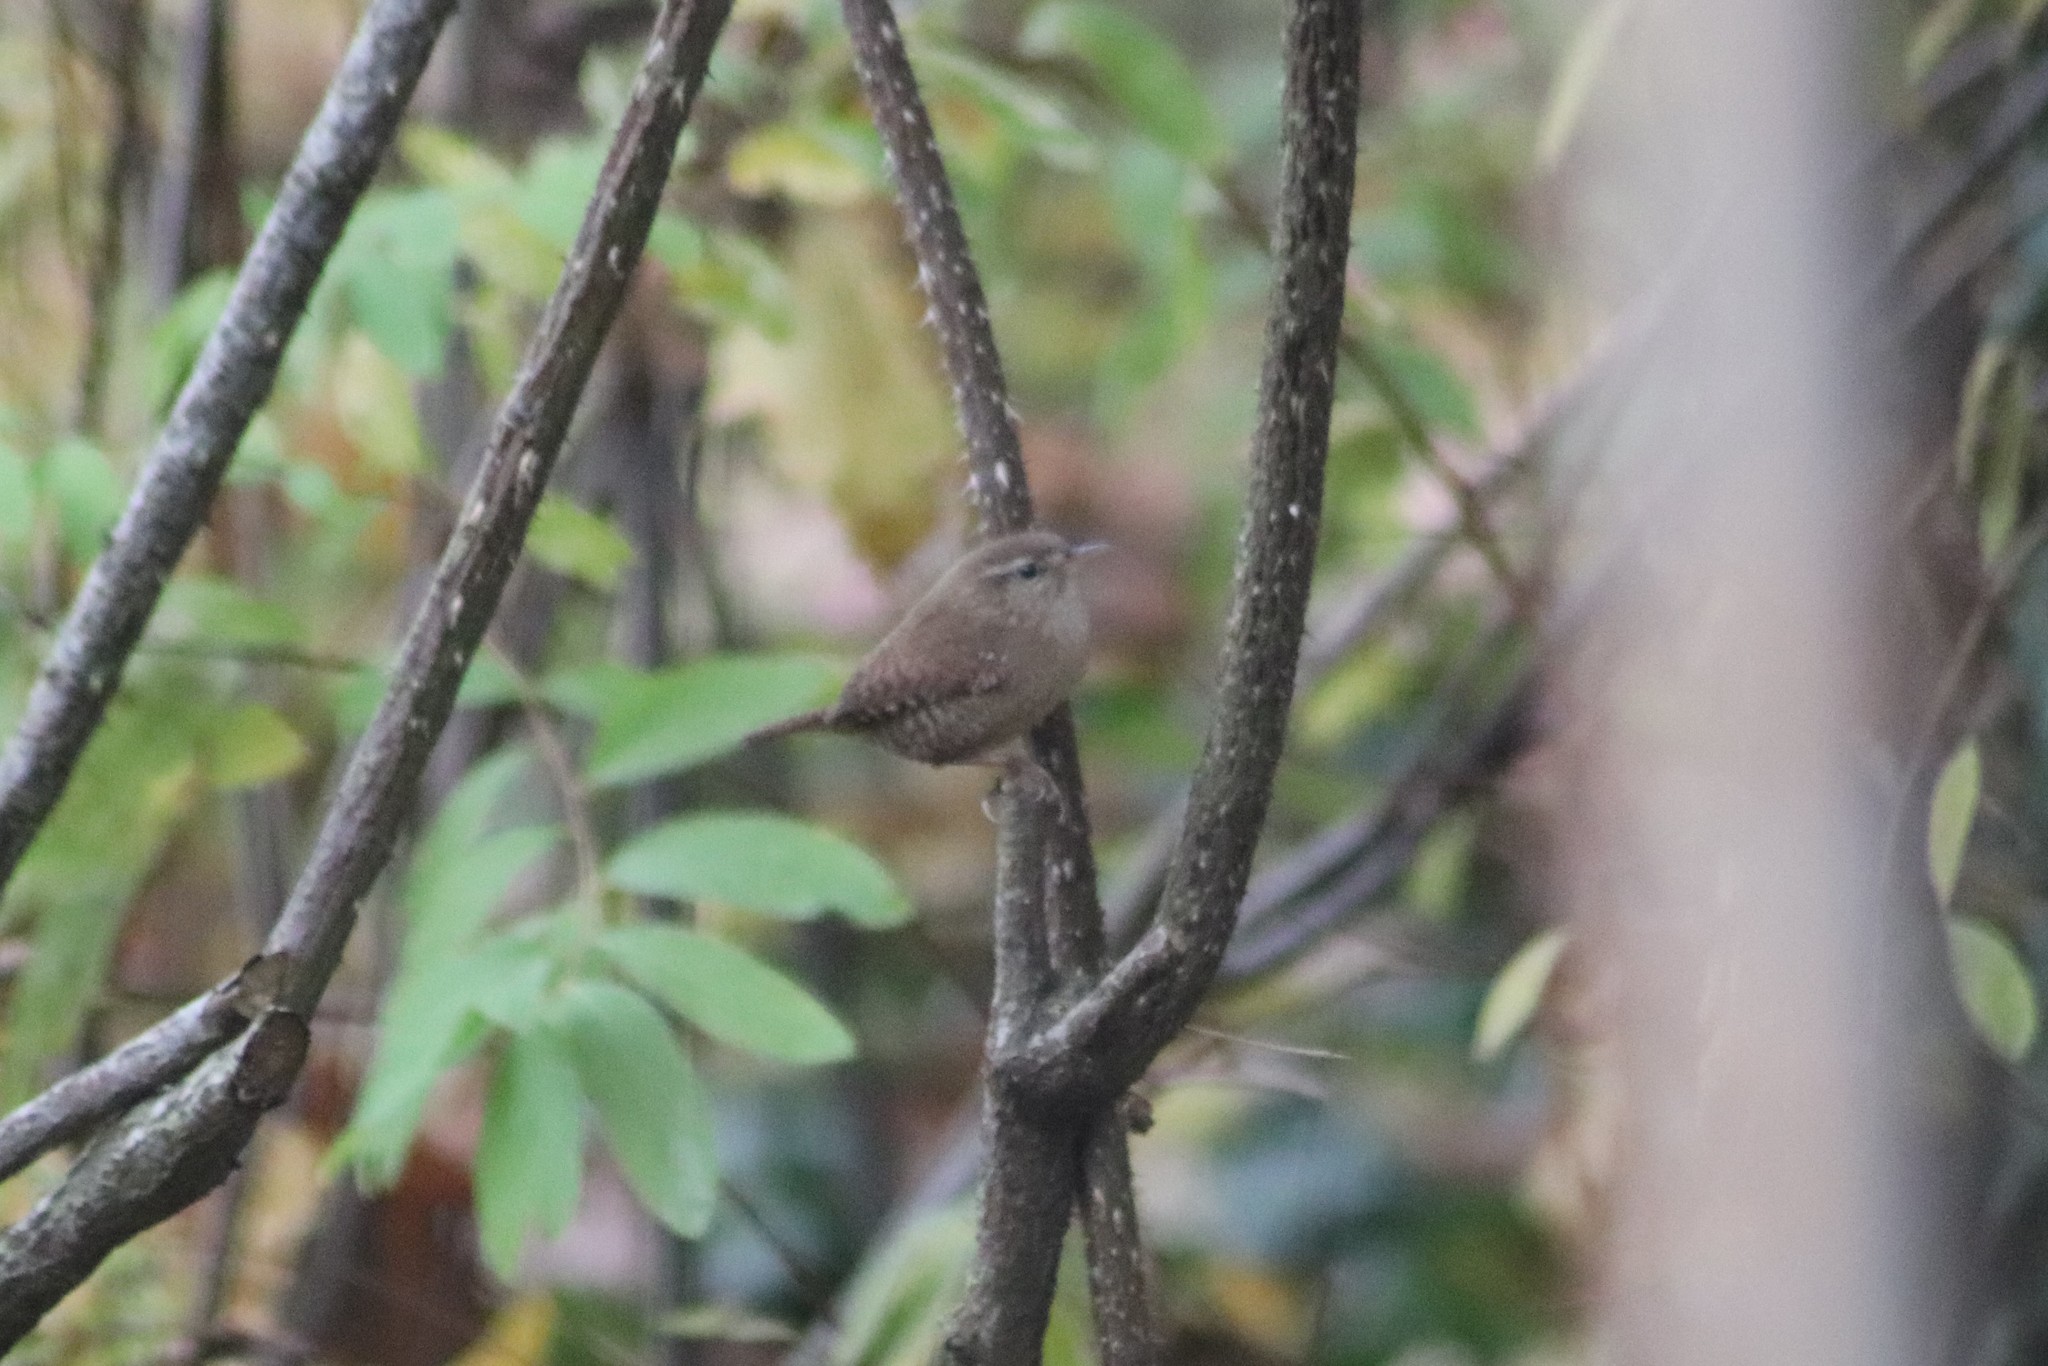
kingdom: Animalia
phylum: Chordata
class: Aves
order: Passeriformes
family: Troglodytidae
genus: Troglodytes
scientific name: Troglodytes troglodytes
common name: Eurasian wren
